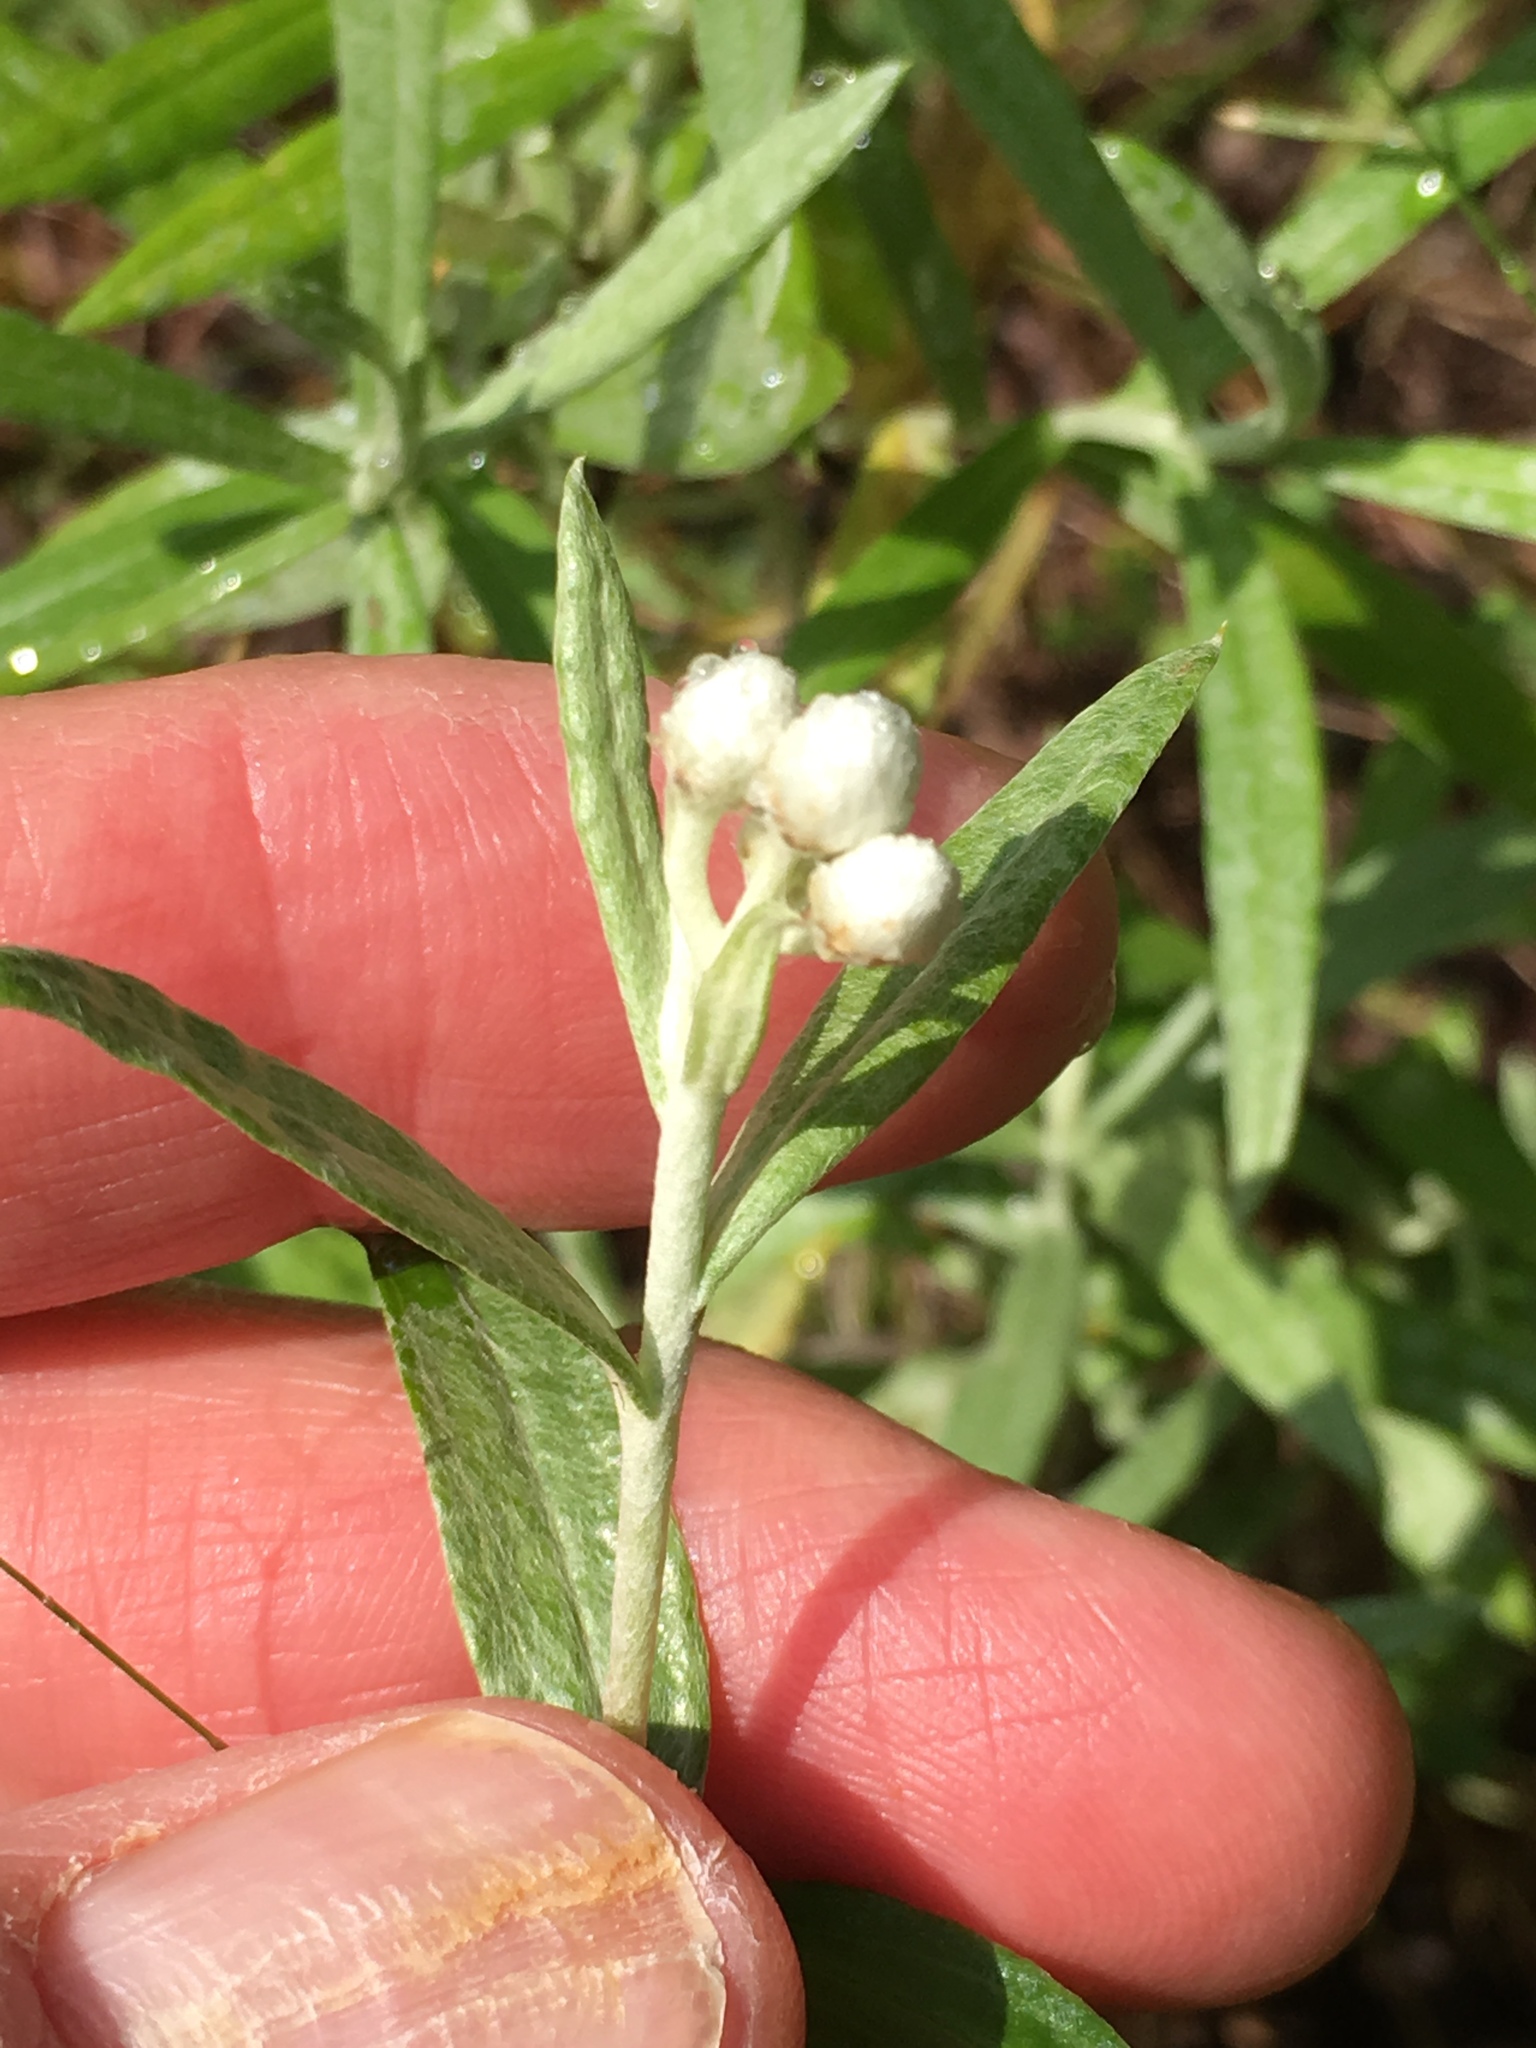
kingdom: Plantae
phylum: Tracheophyta
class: Magnoliopsida
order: Asterales
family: Asteraceae
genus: Anaphalis
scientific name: Anaphalis margaritacea
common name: Pearly everlasting
